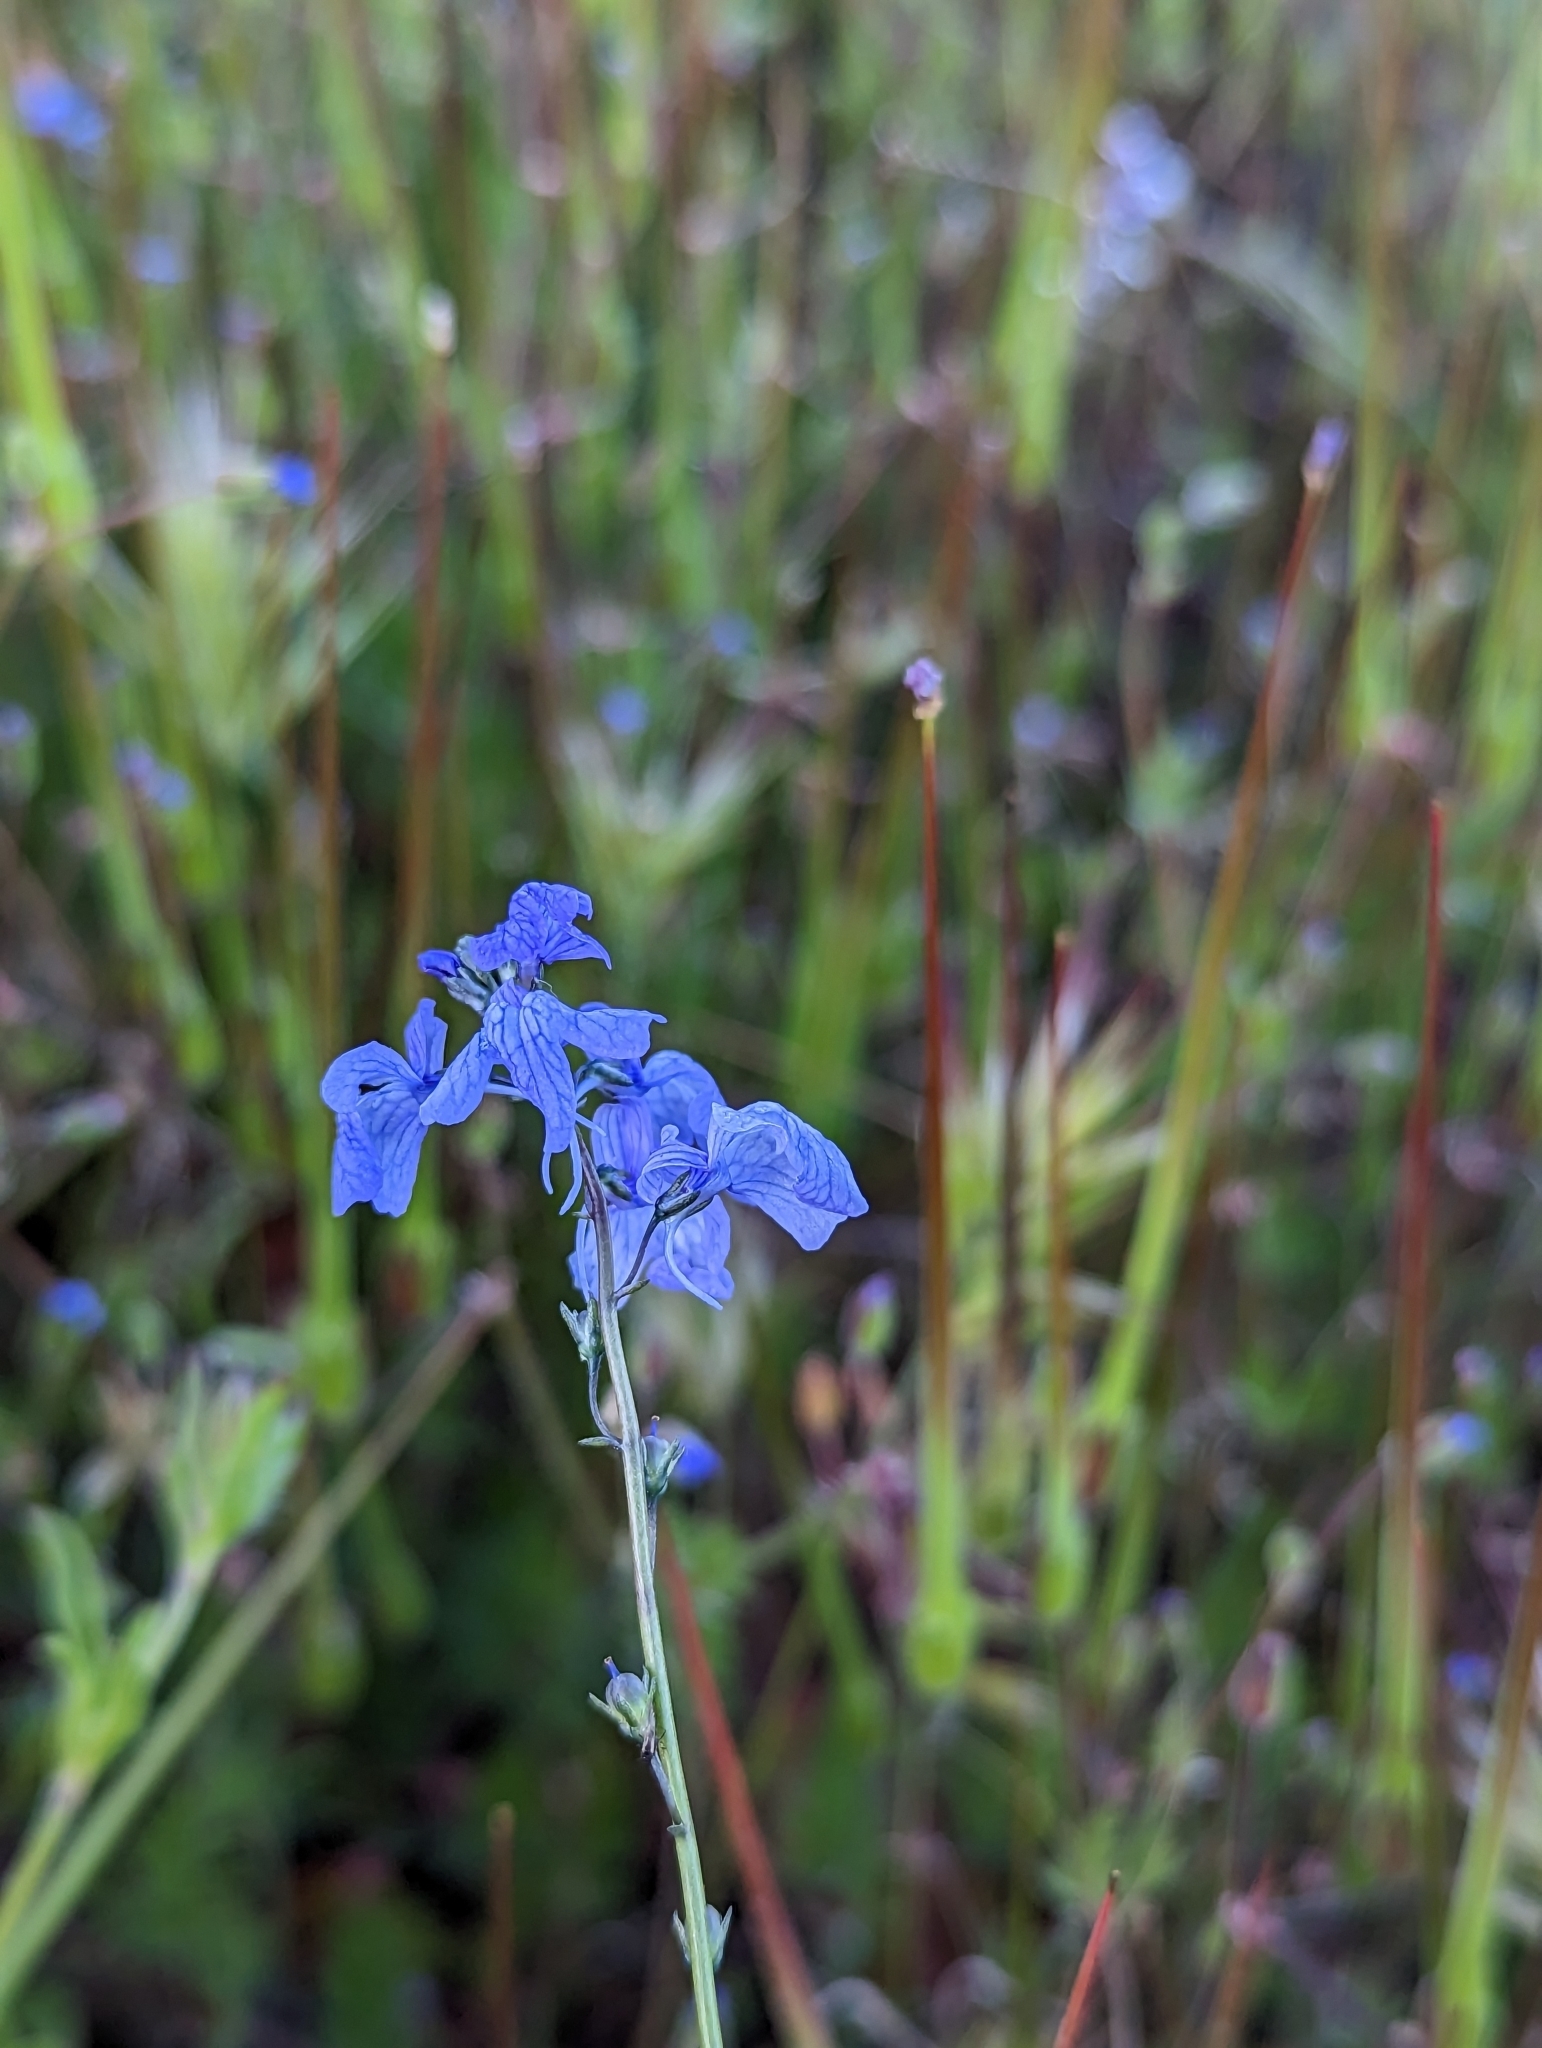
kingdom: Plantae
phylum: Tracheophyta
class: Magnoliopsida
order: Lamiales
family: Plantaginaceae
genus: Nuttallanthus
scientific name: Nuttallanthus texanus
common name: Texas toadflax
